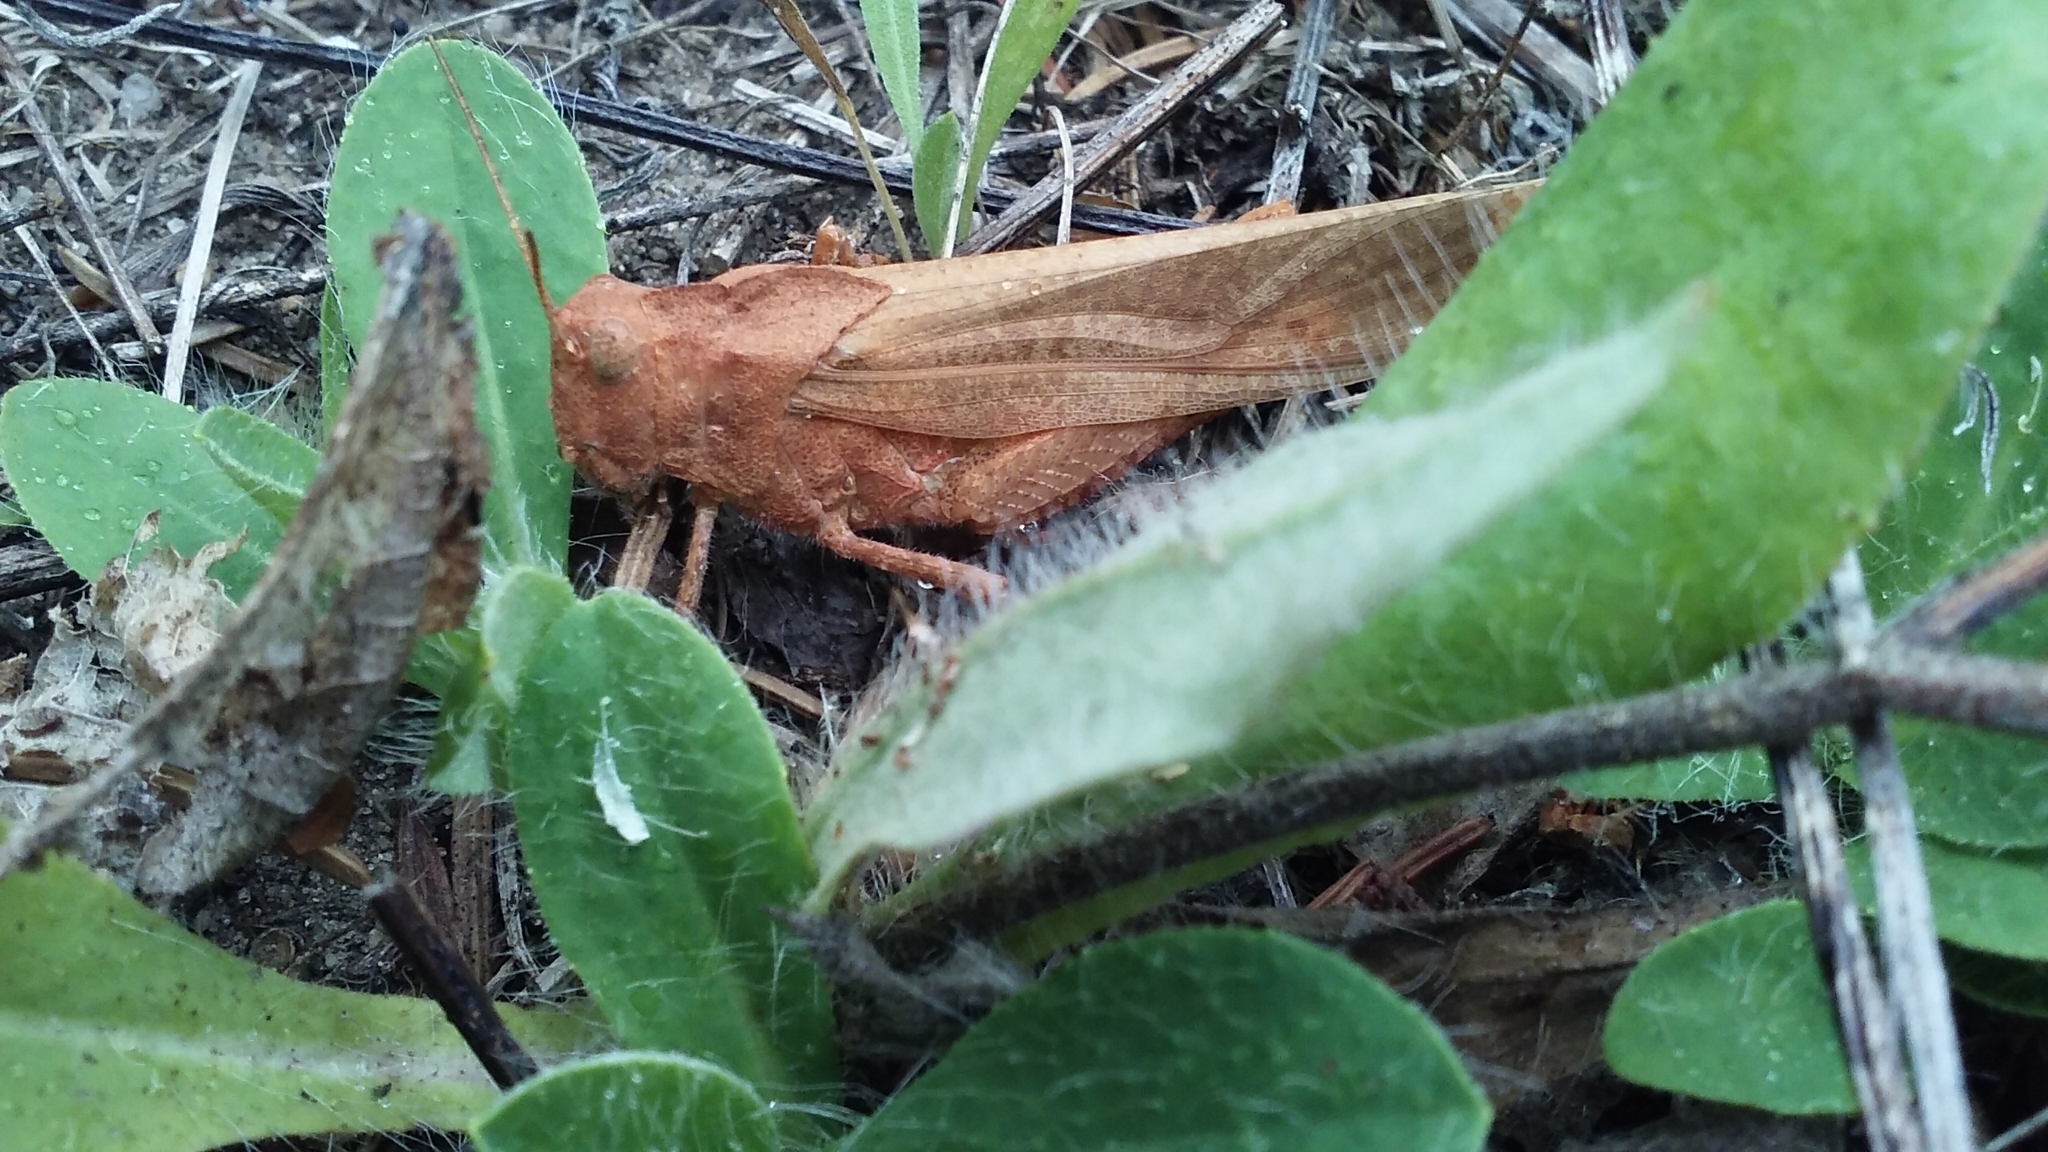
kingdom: Animalia
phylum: Arthropoda
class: Insecta
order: Orthoptera
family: Acrididae
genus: Dissosteira
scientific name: Dissosteira carolina
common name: Carolina grasshopper
